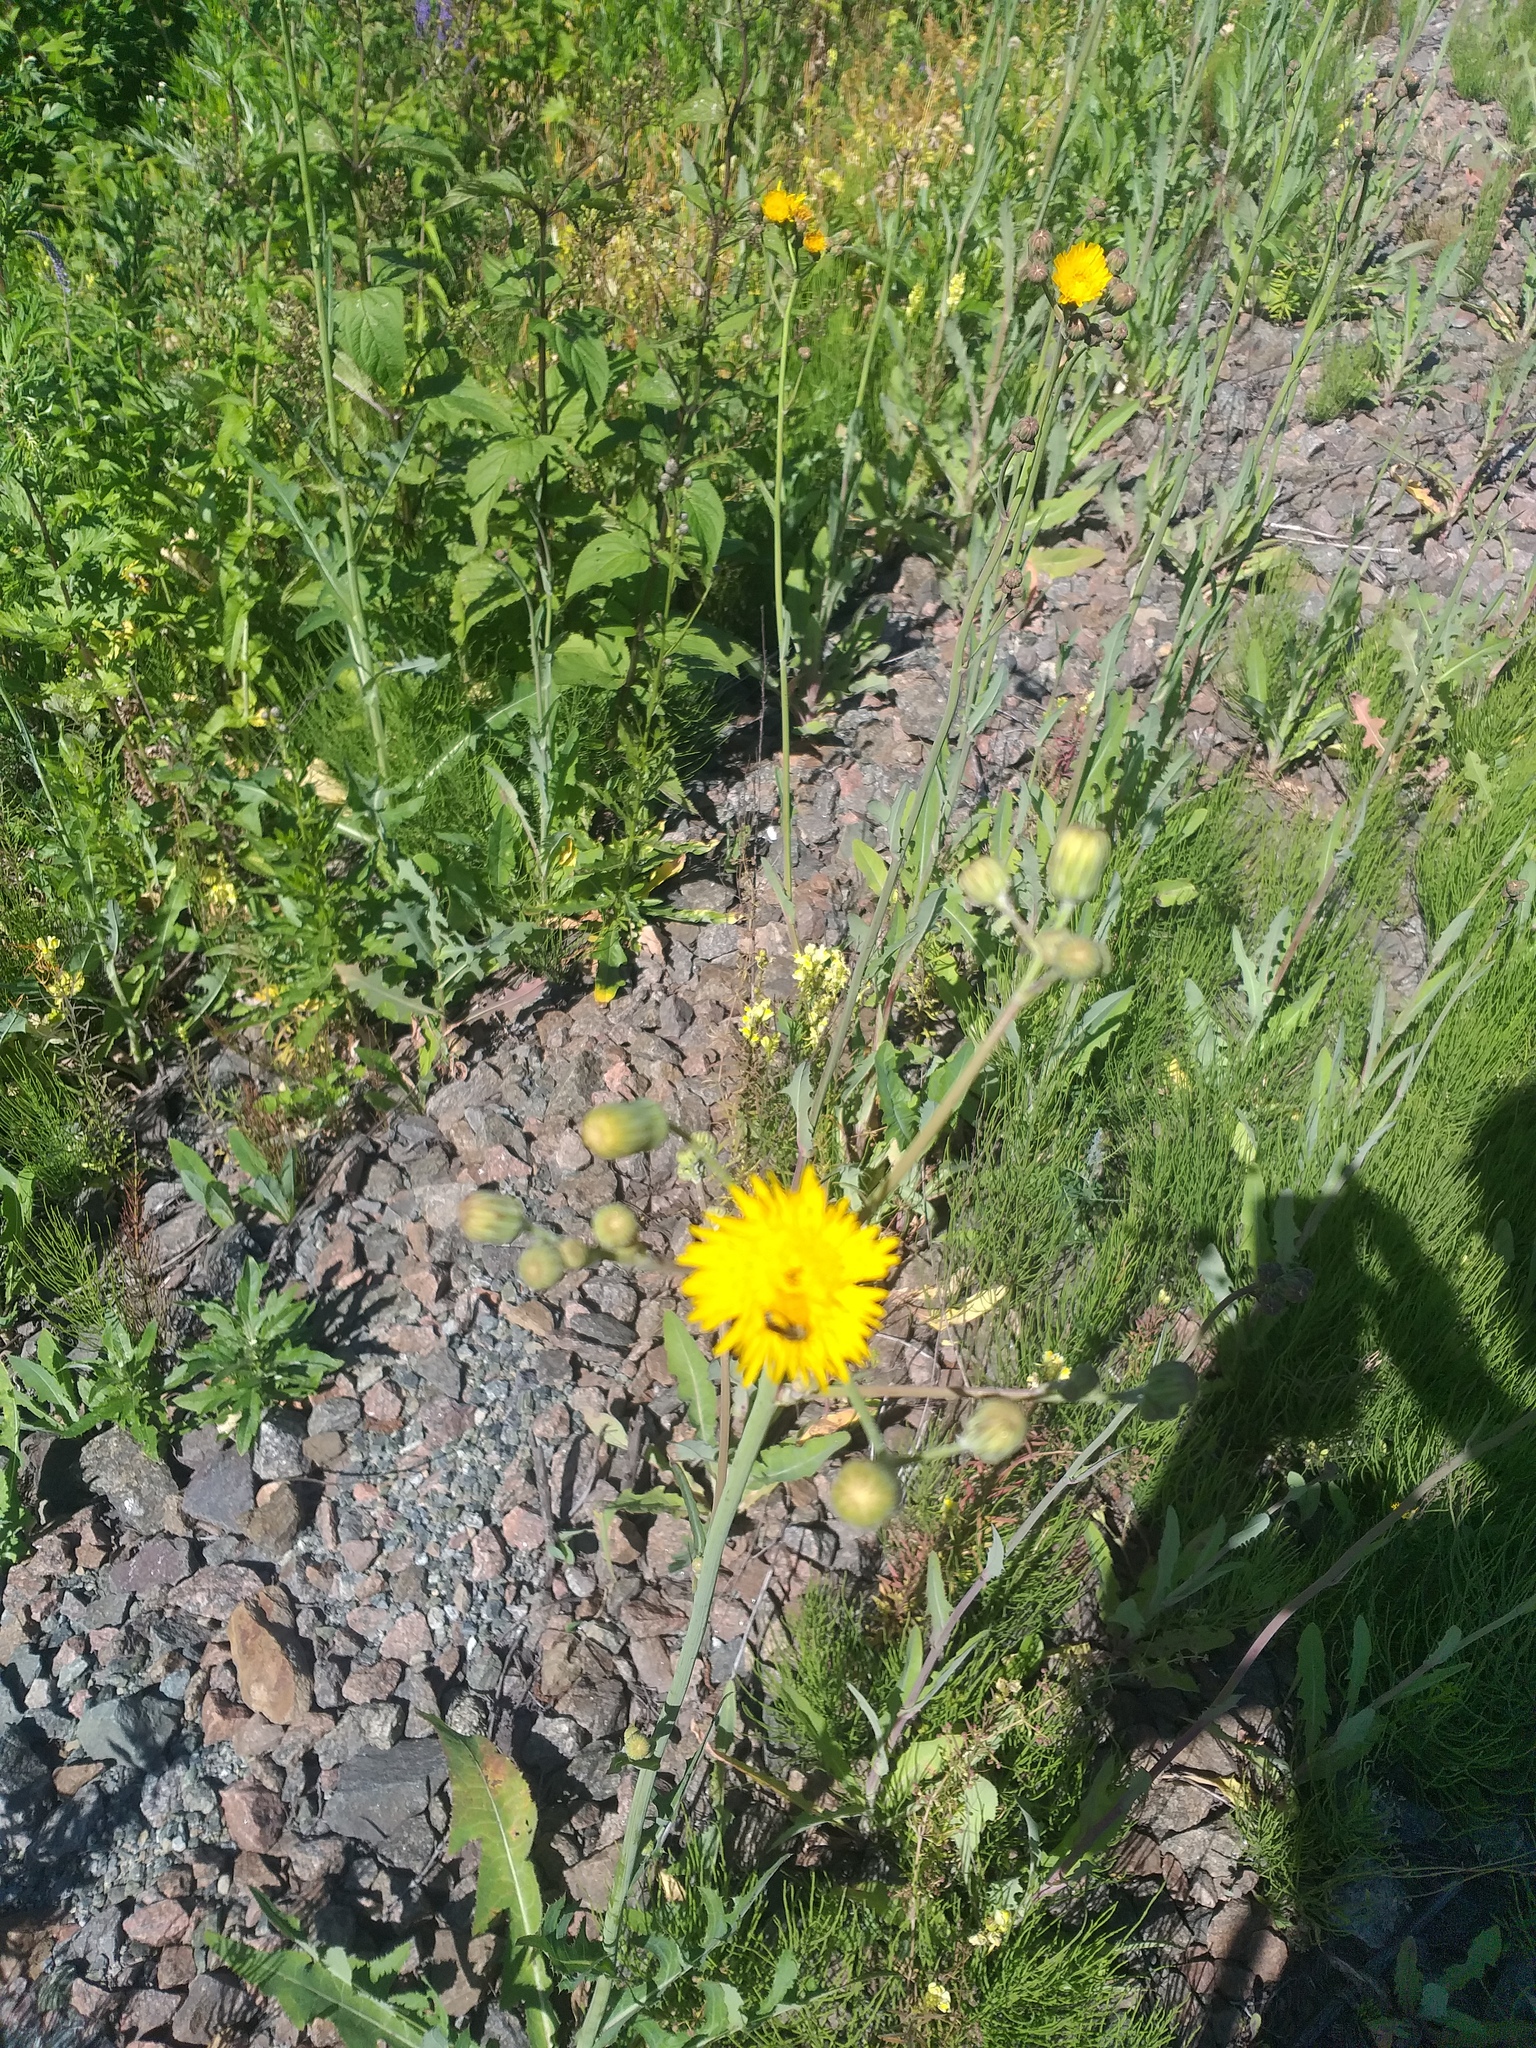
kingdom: Plantae
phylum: Tracheophyta
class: Magnoliopsida
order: Asterales
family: Asteraceae
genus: Sonchus
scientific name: Sonchus arvensis
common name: Perennial sow-thistle
